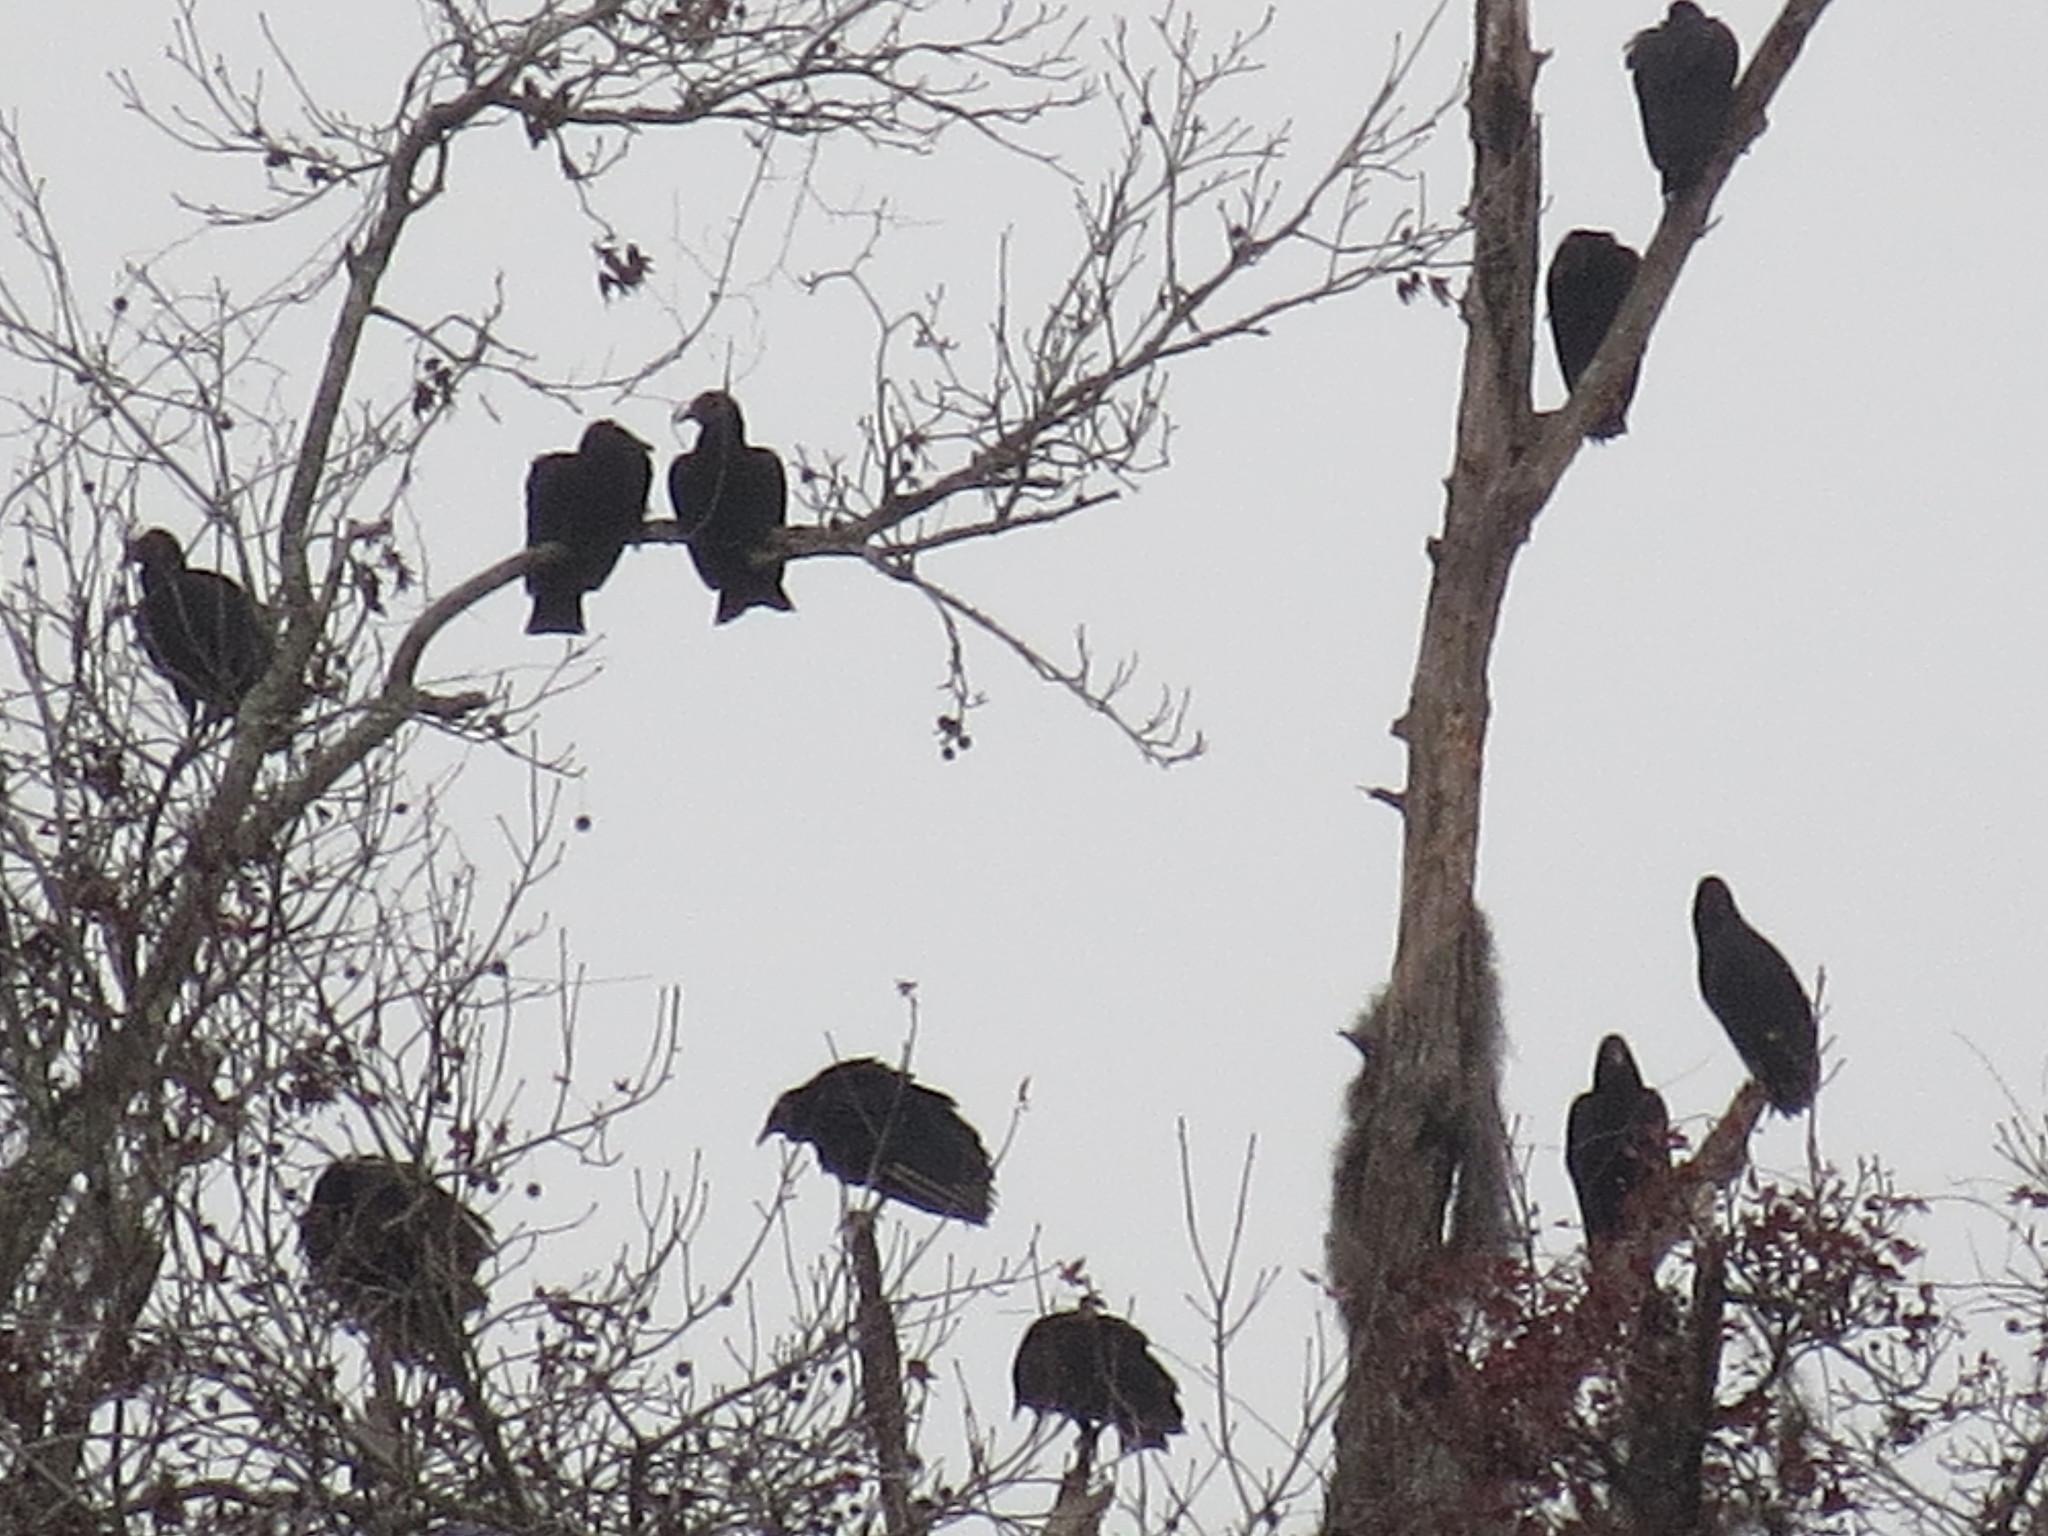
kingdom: Animalia
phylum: Chordata
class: Aves
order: Accipitriformes
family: Cathartidae
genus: Coragyps
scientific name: Coragyps atratus
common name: Black vulture
